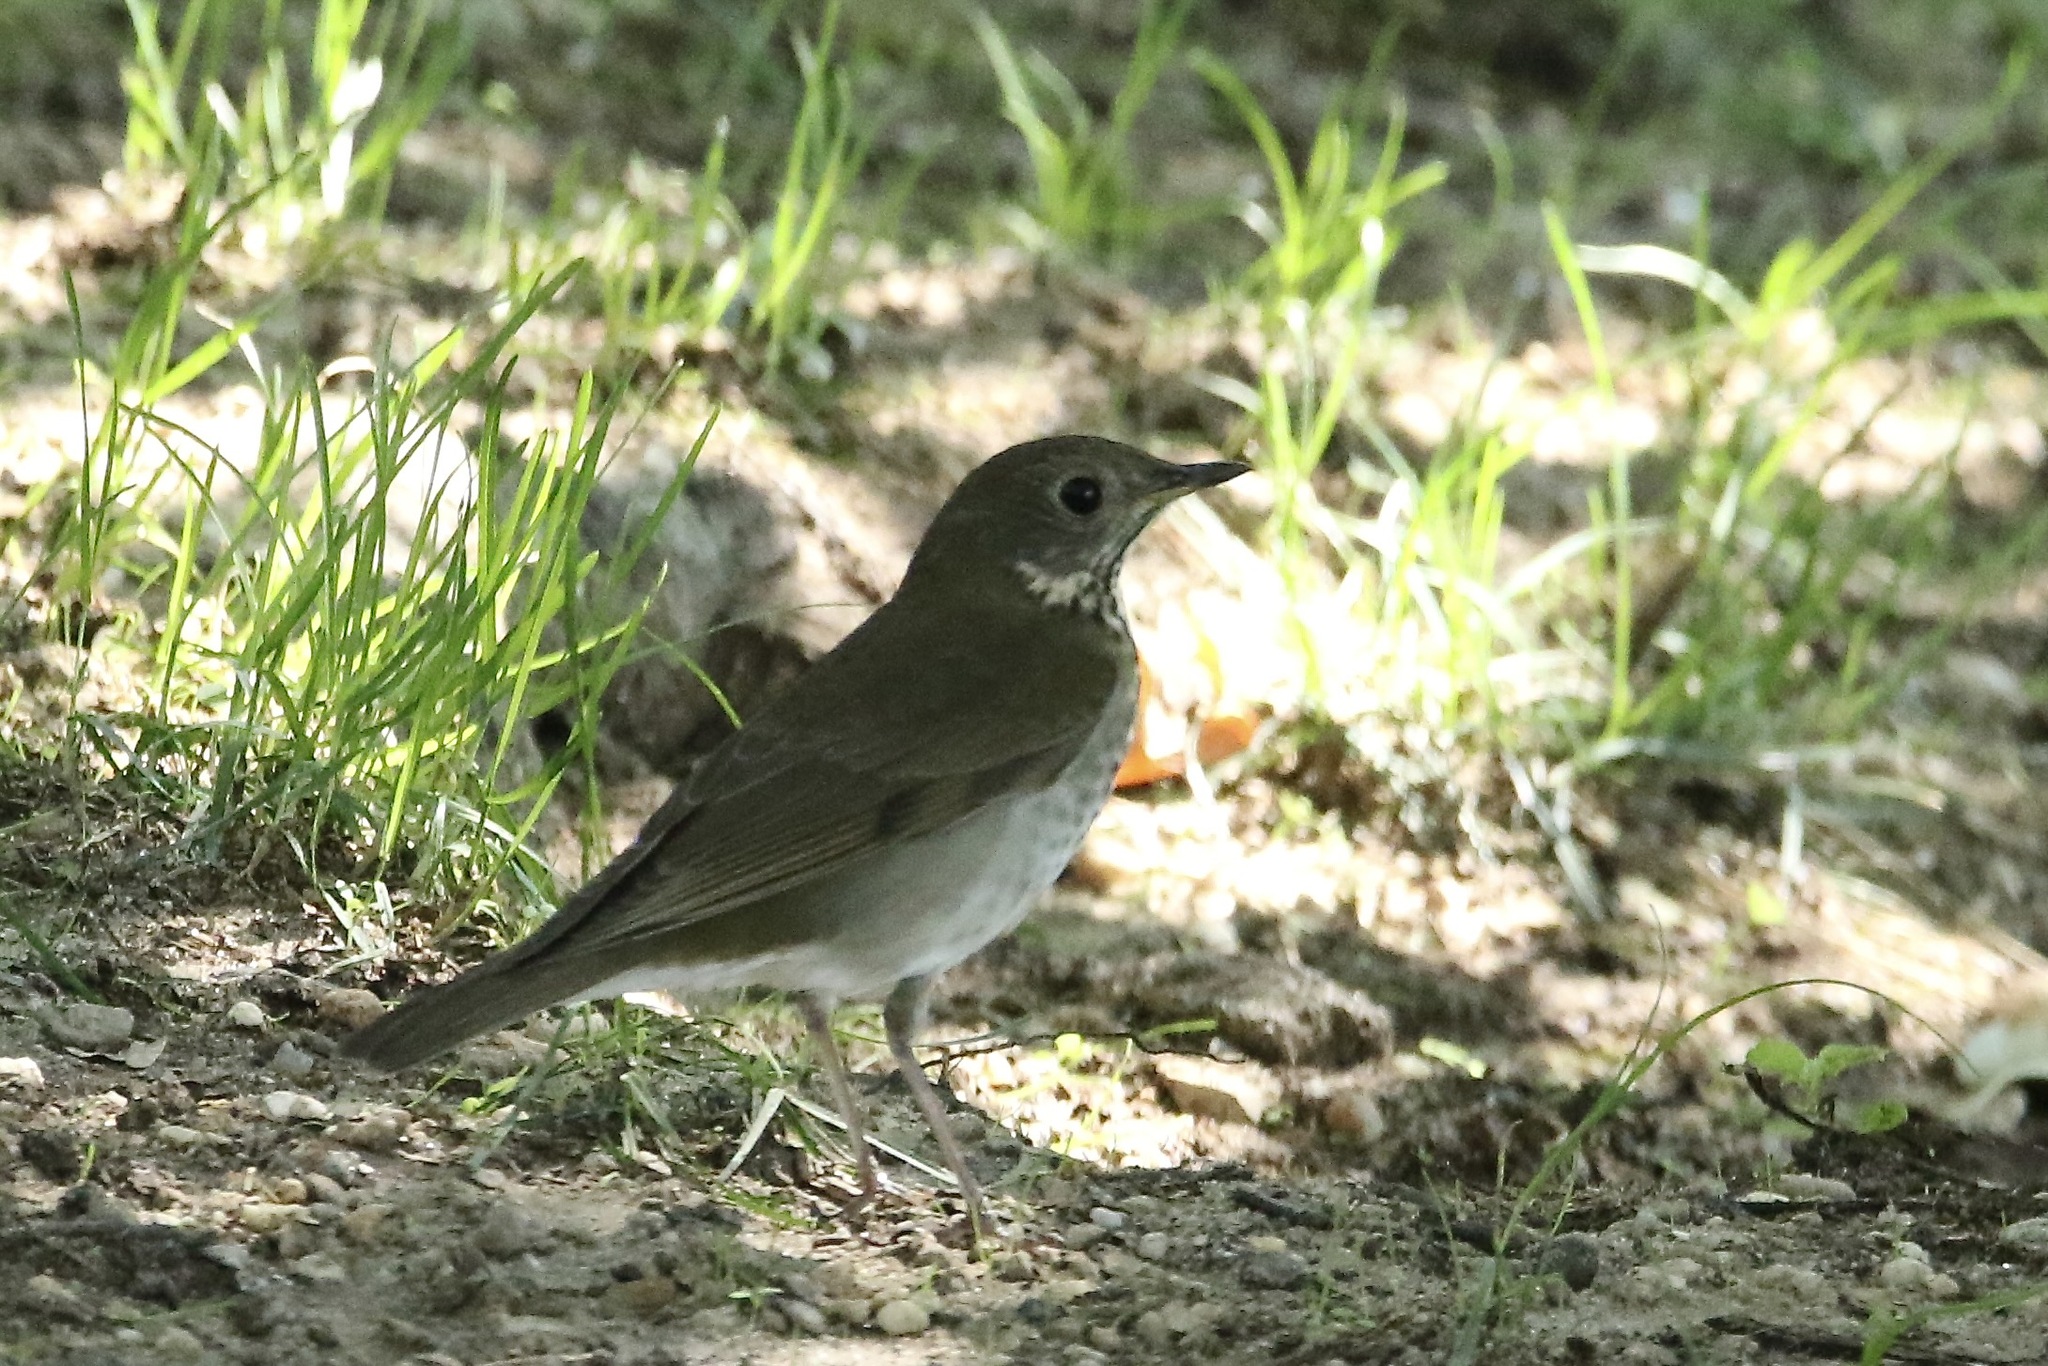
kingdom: Animalia
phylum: Chordata
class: Aves
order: Passeriformes
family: Turdidae
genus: Catharus
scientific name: Catharus minimus
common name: Grey-cheeked thrush
